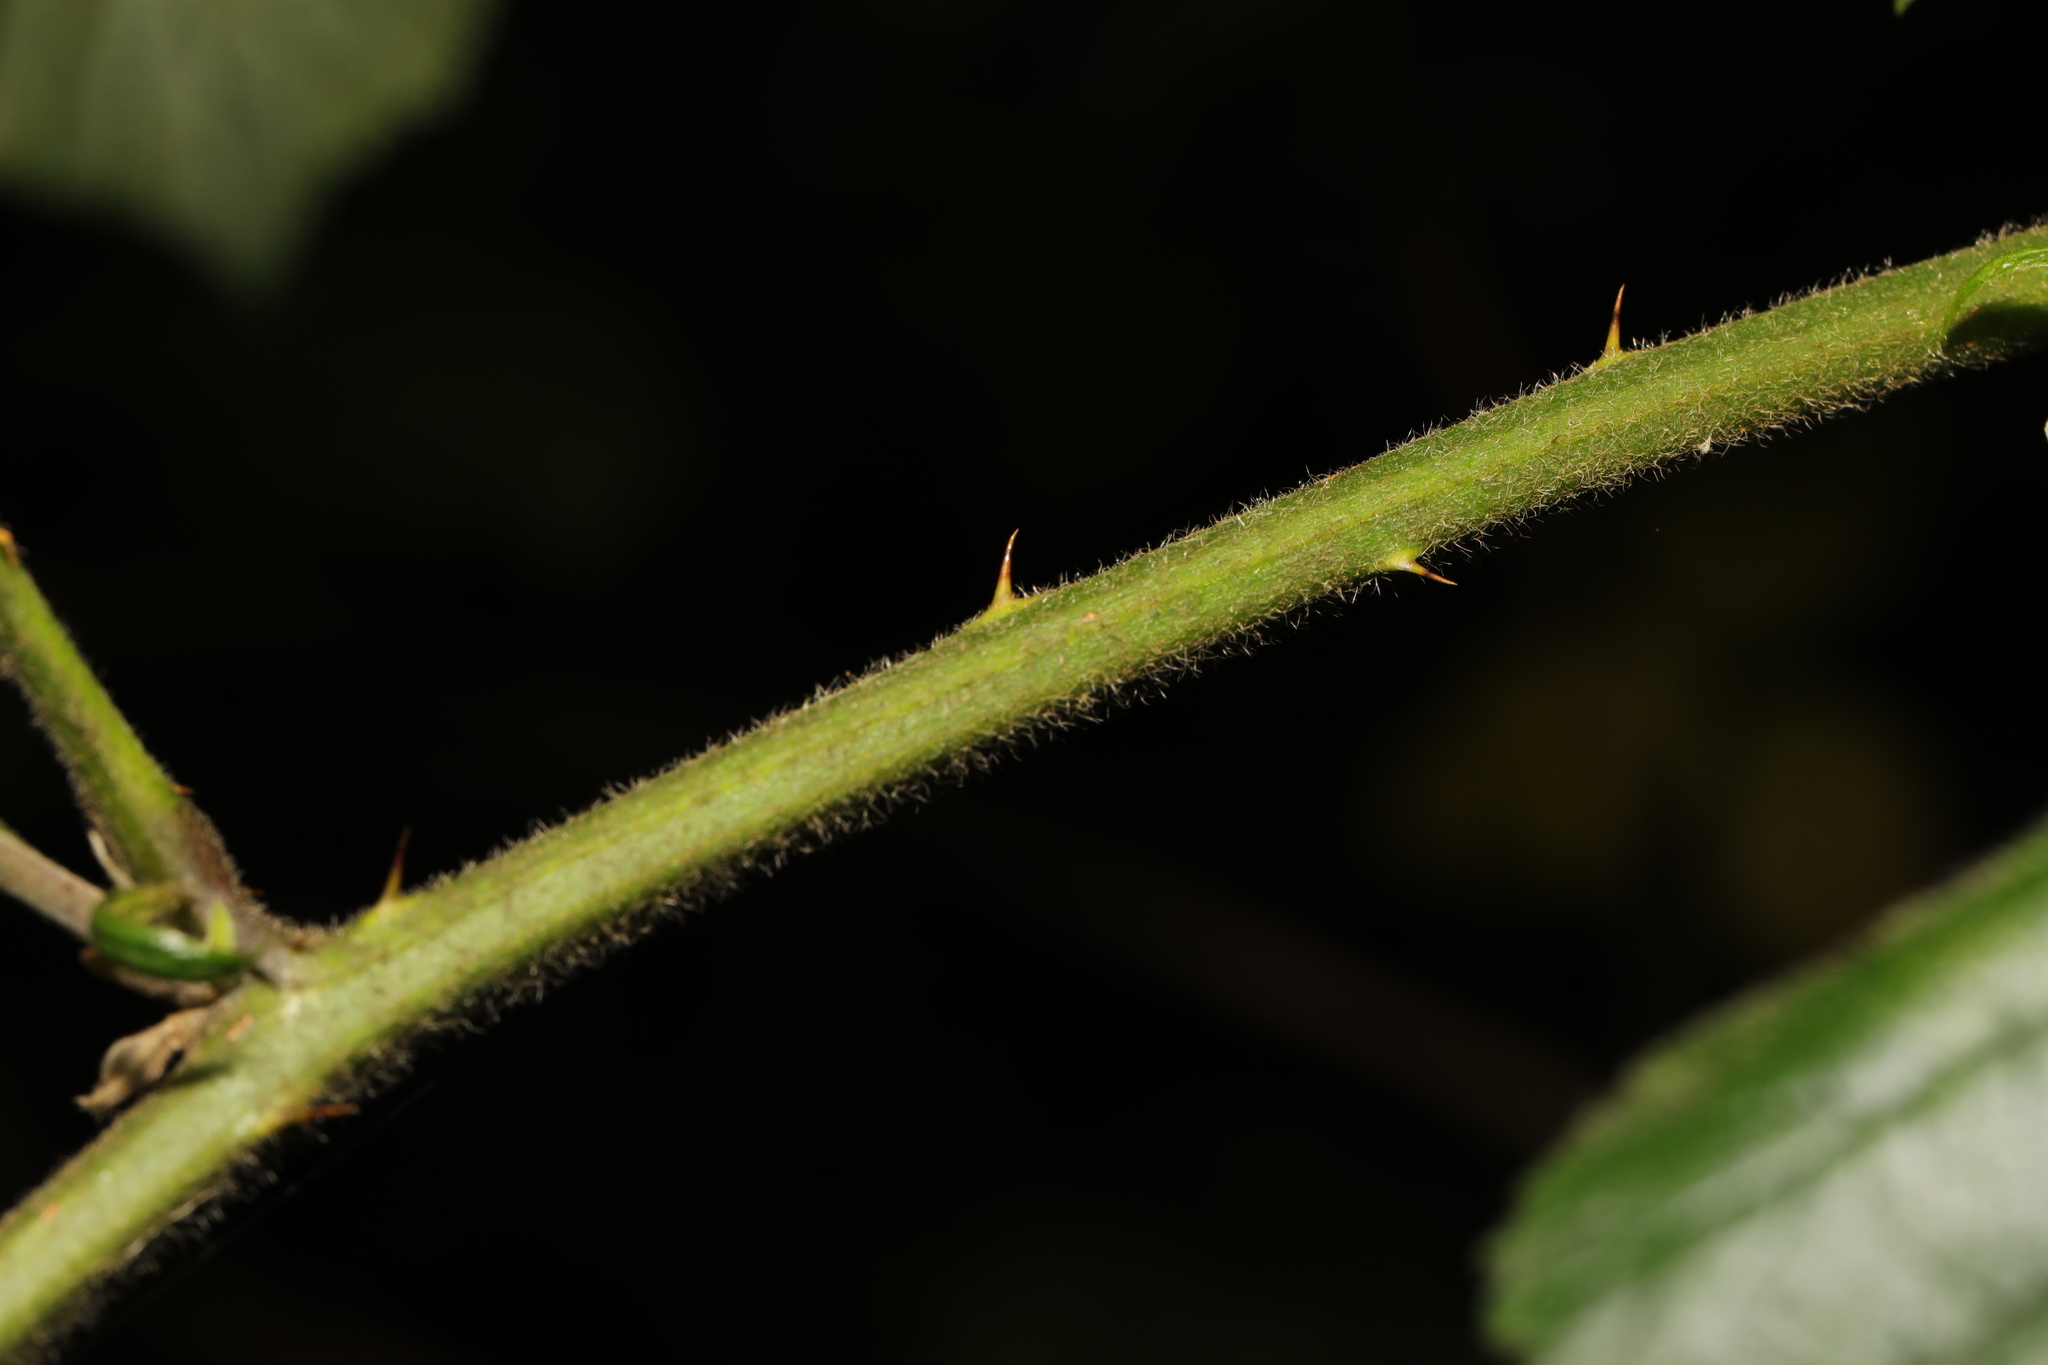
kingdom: Plantae
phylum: Tracheophyta
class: Magnoliopsida
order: Rosales
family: Rosaceae
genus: Rubus
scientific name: Rubus wirralensis
